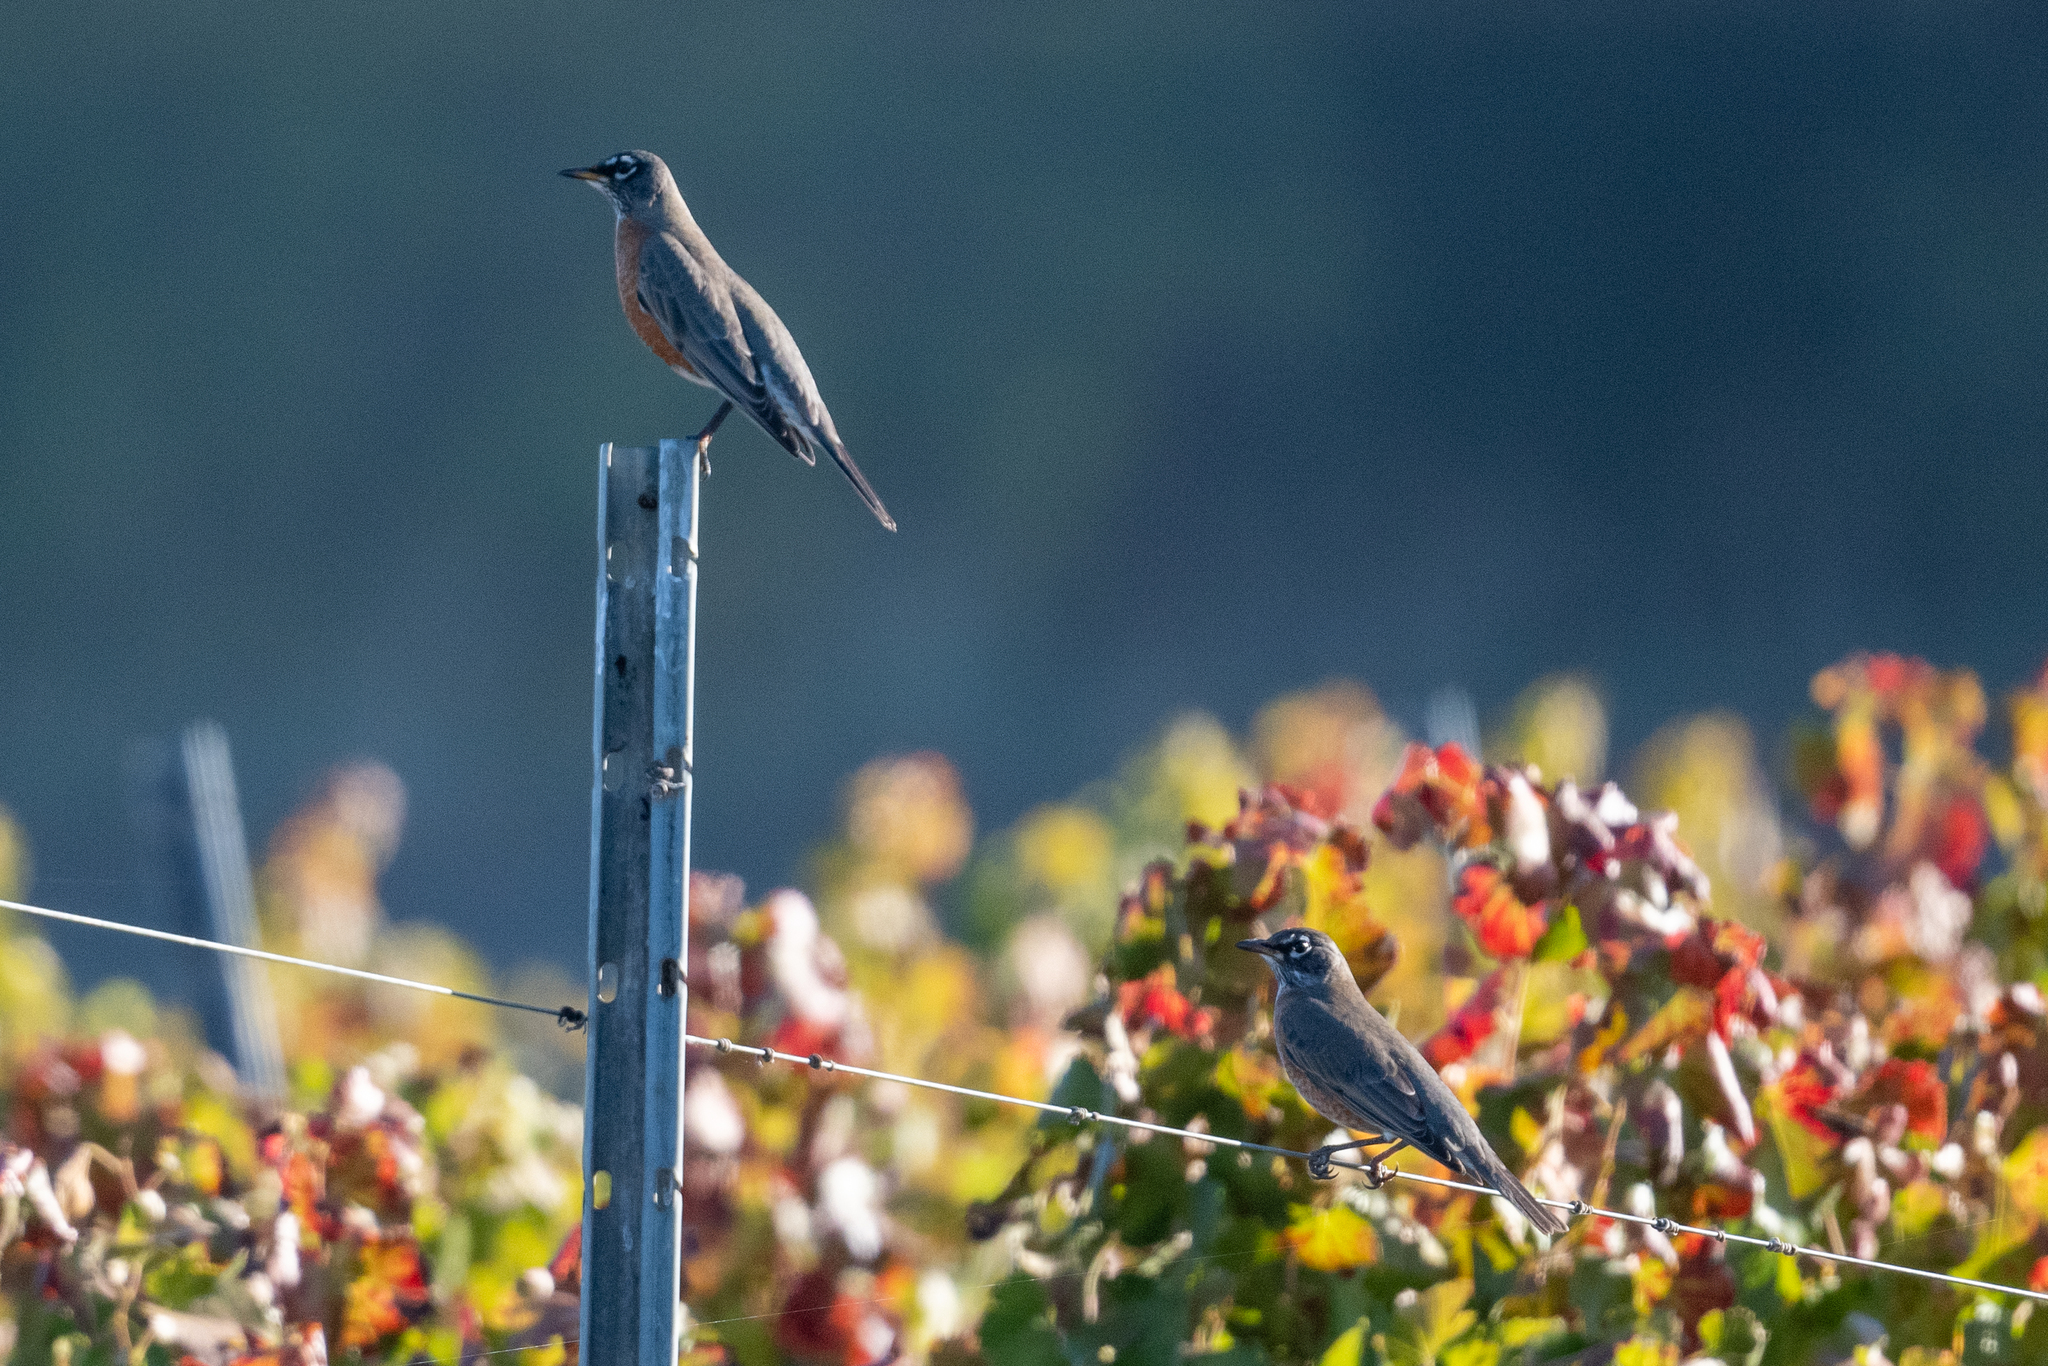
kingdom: Animalia
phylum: Chordata
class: Aves
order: Passeriformes
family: Turdidae
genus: Turdus
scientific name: Turdus migratorius
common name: American robin
